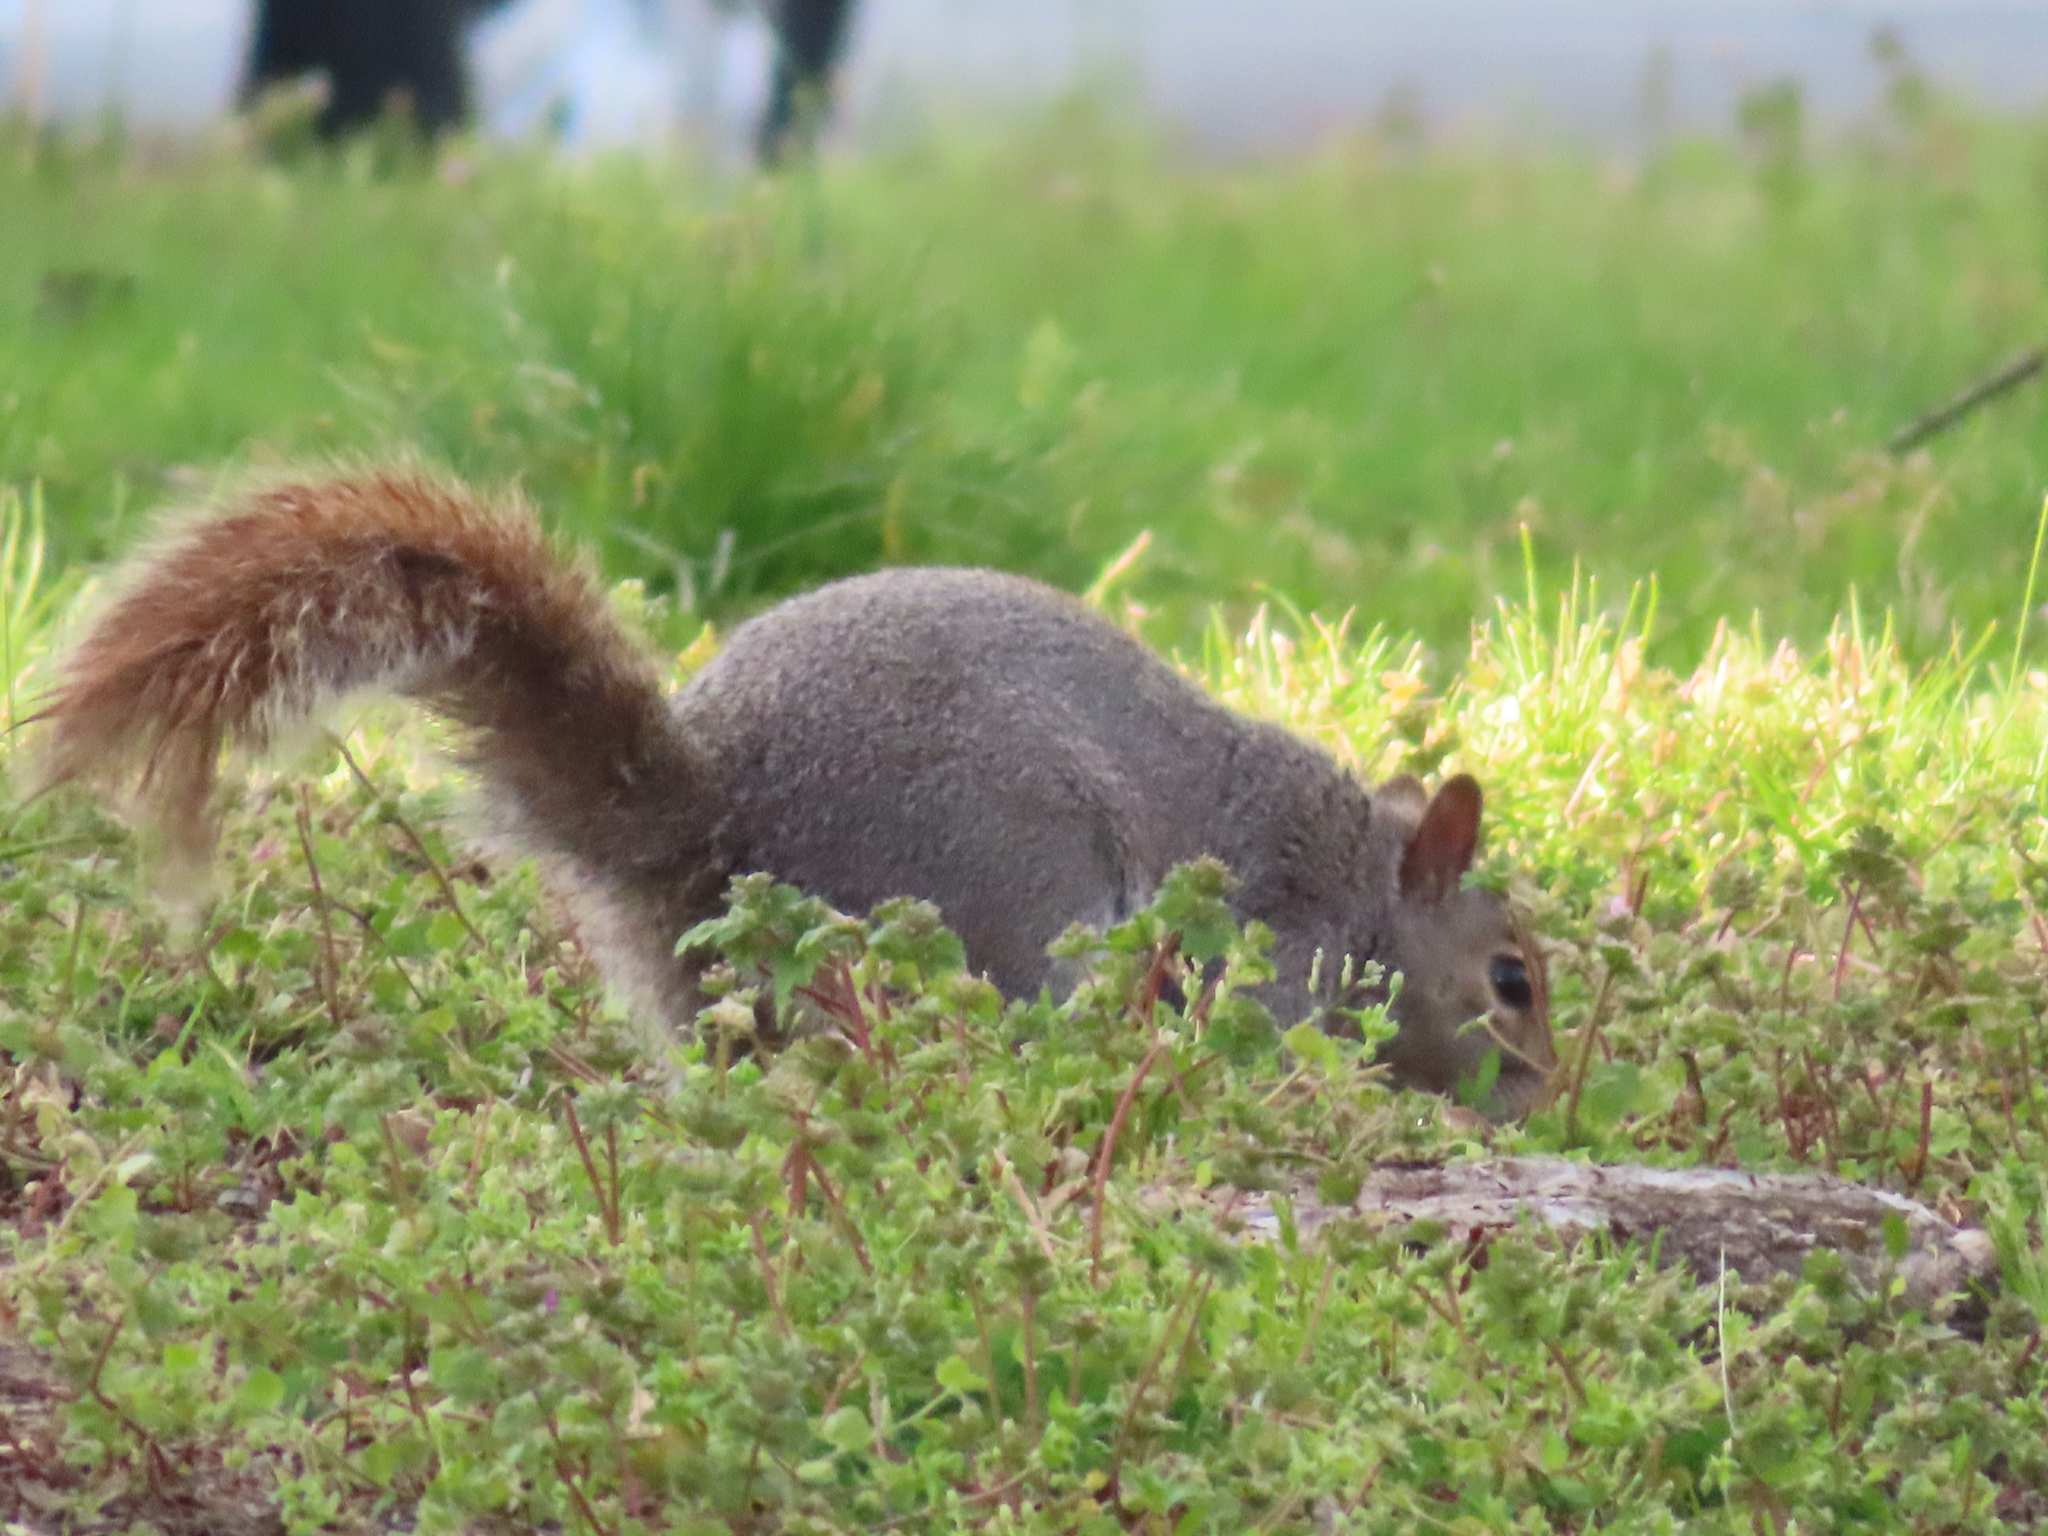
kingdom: Animalia
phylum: Chordata
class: Mammalia
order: Rodentia
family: Sciuridae
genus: Sciurus
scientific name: Sciurus carolinensis
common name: Eastern gray squirrel
